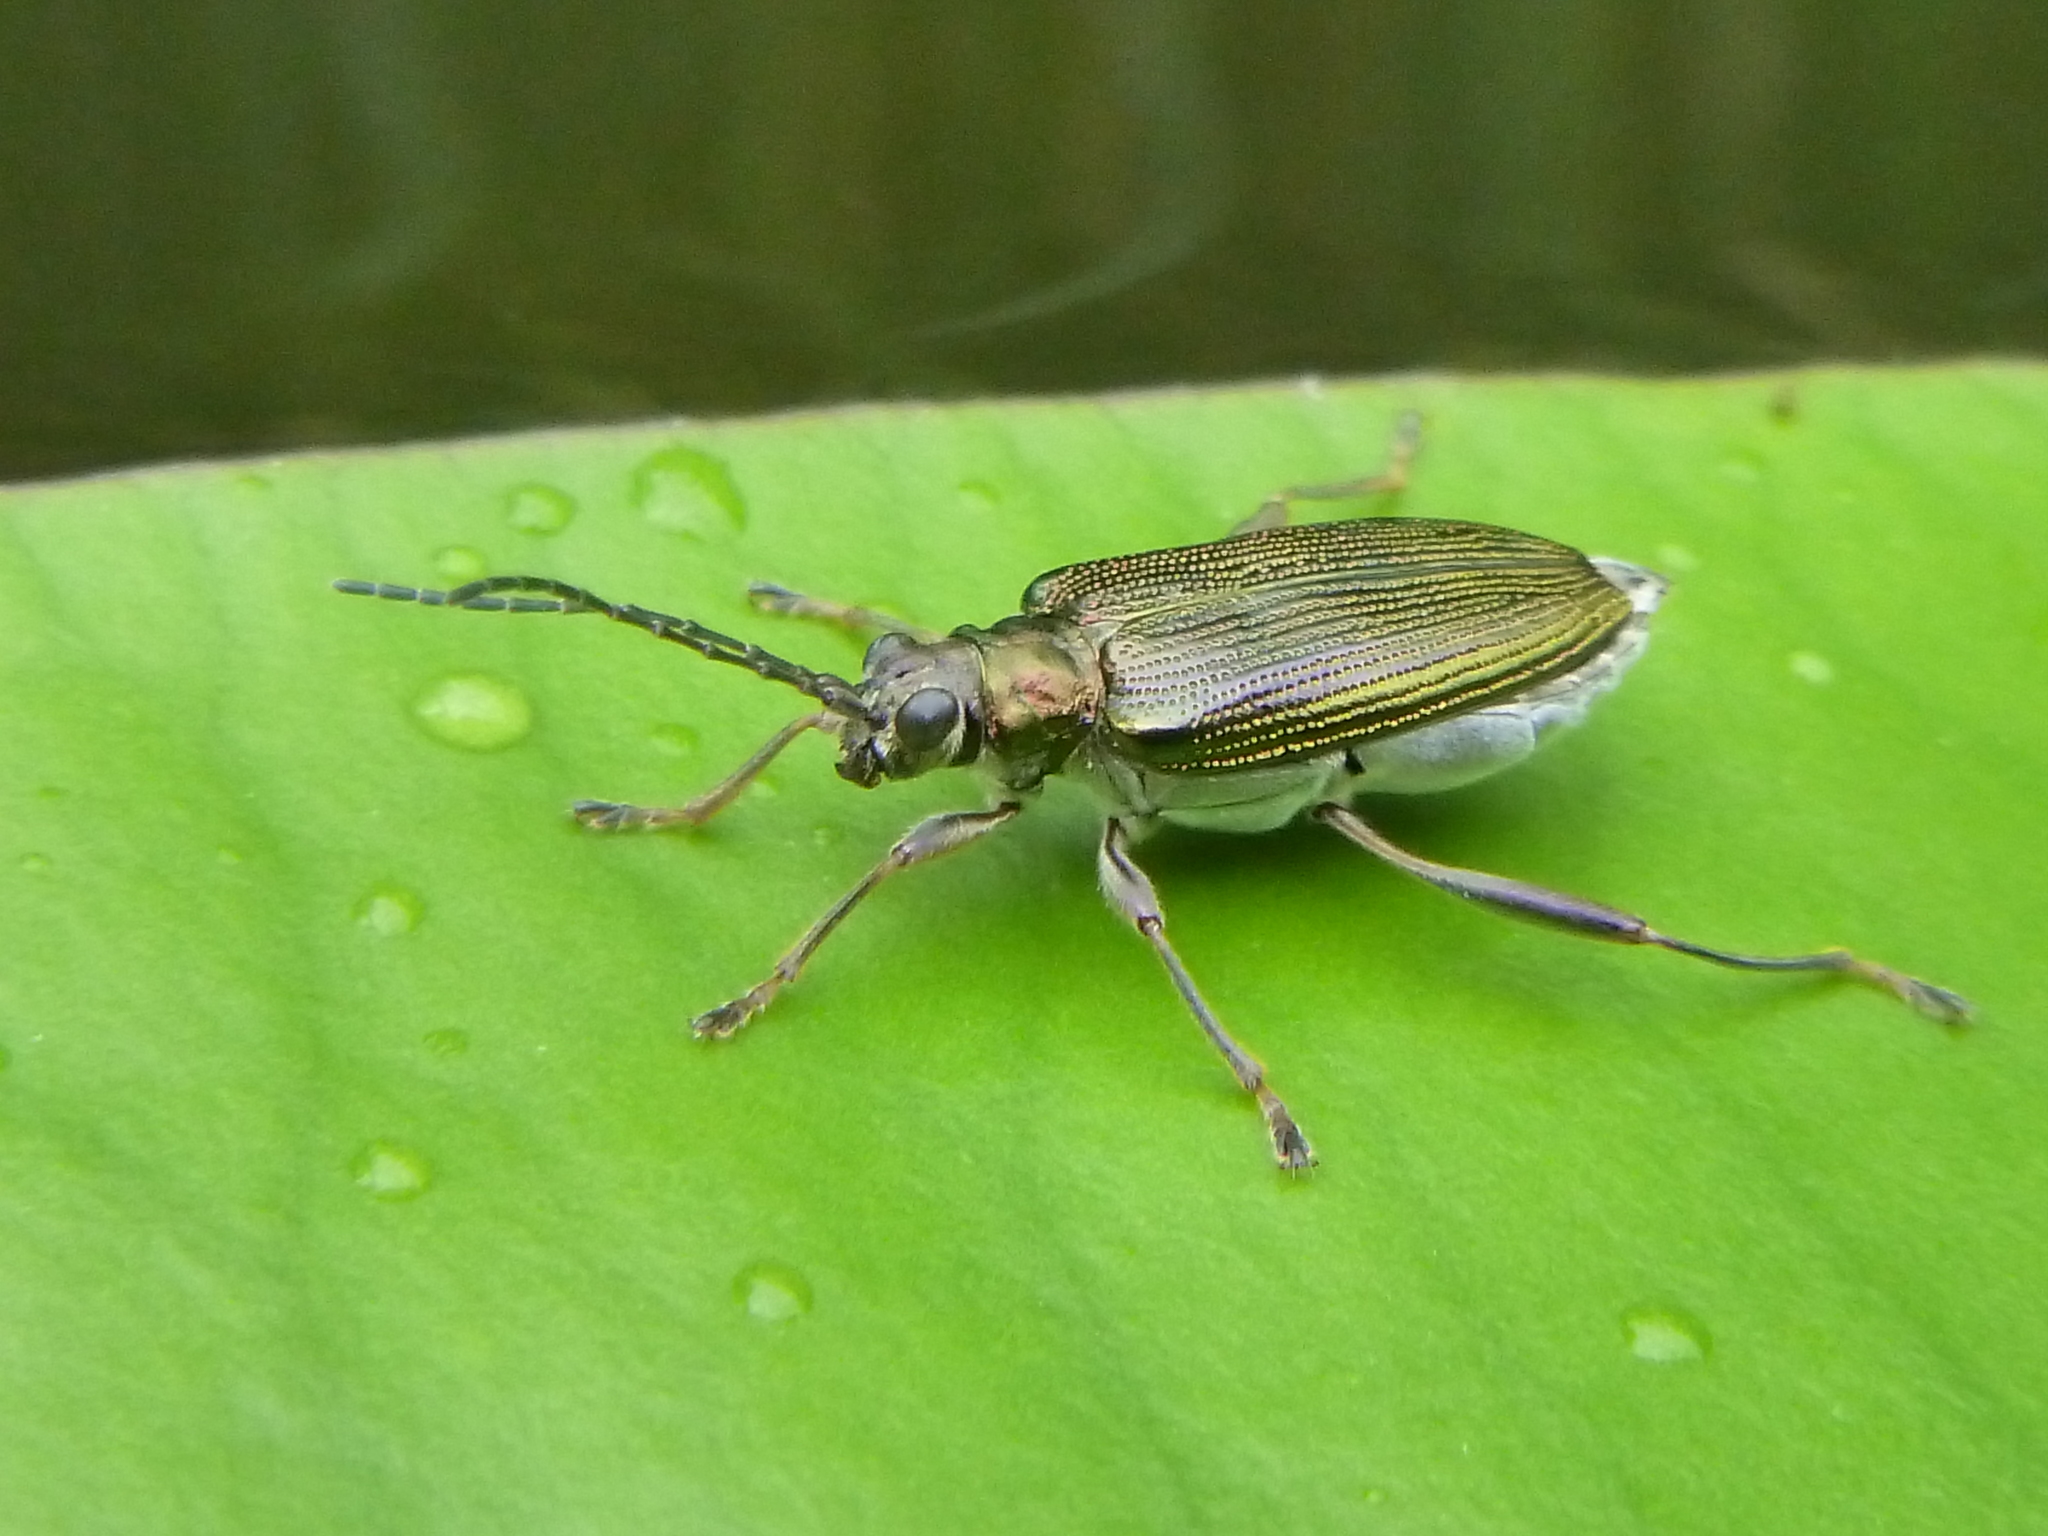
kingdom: Animalia
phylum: Arthropoda
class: Insecta
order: Coleoptera
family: Chrysomelidae
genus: Donacia
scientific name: Donacia crassipes
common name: Water-lily reed beetle
